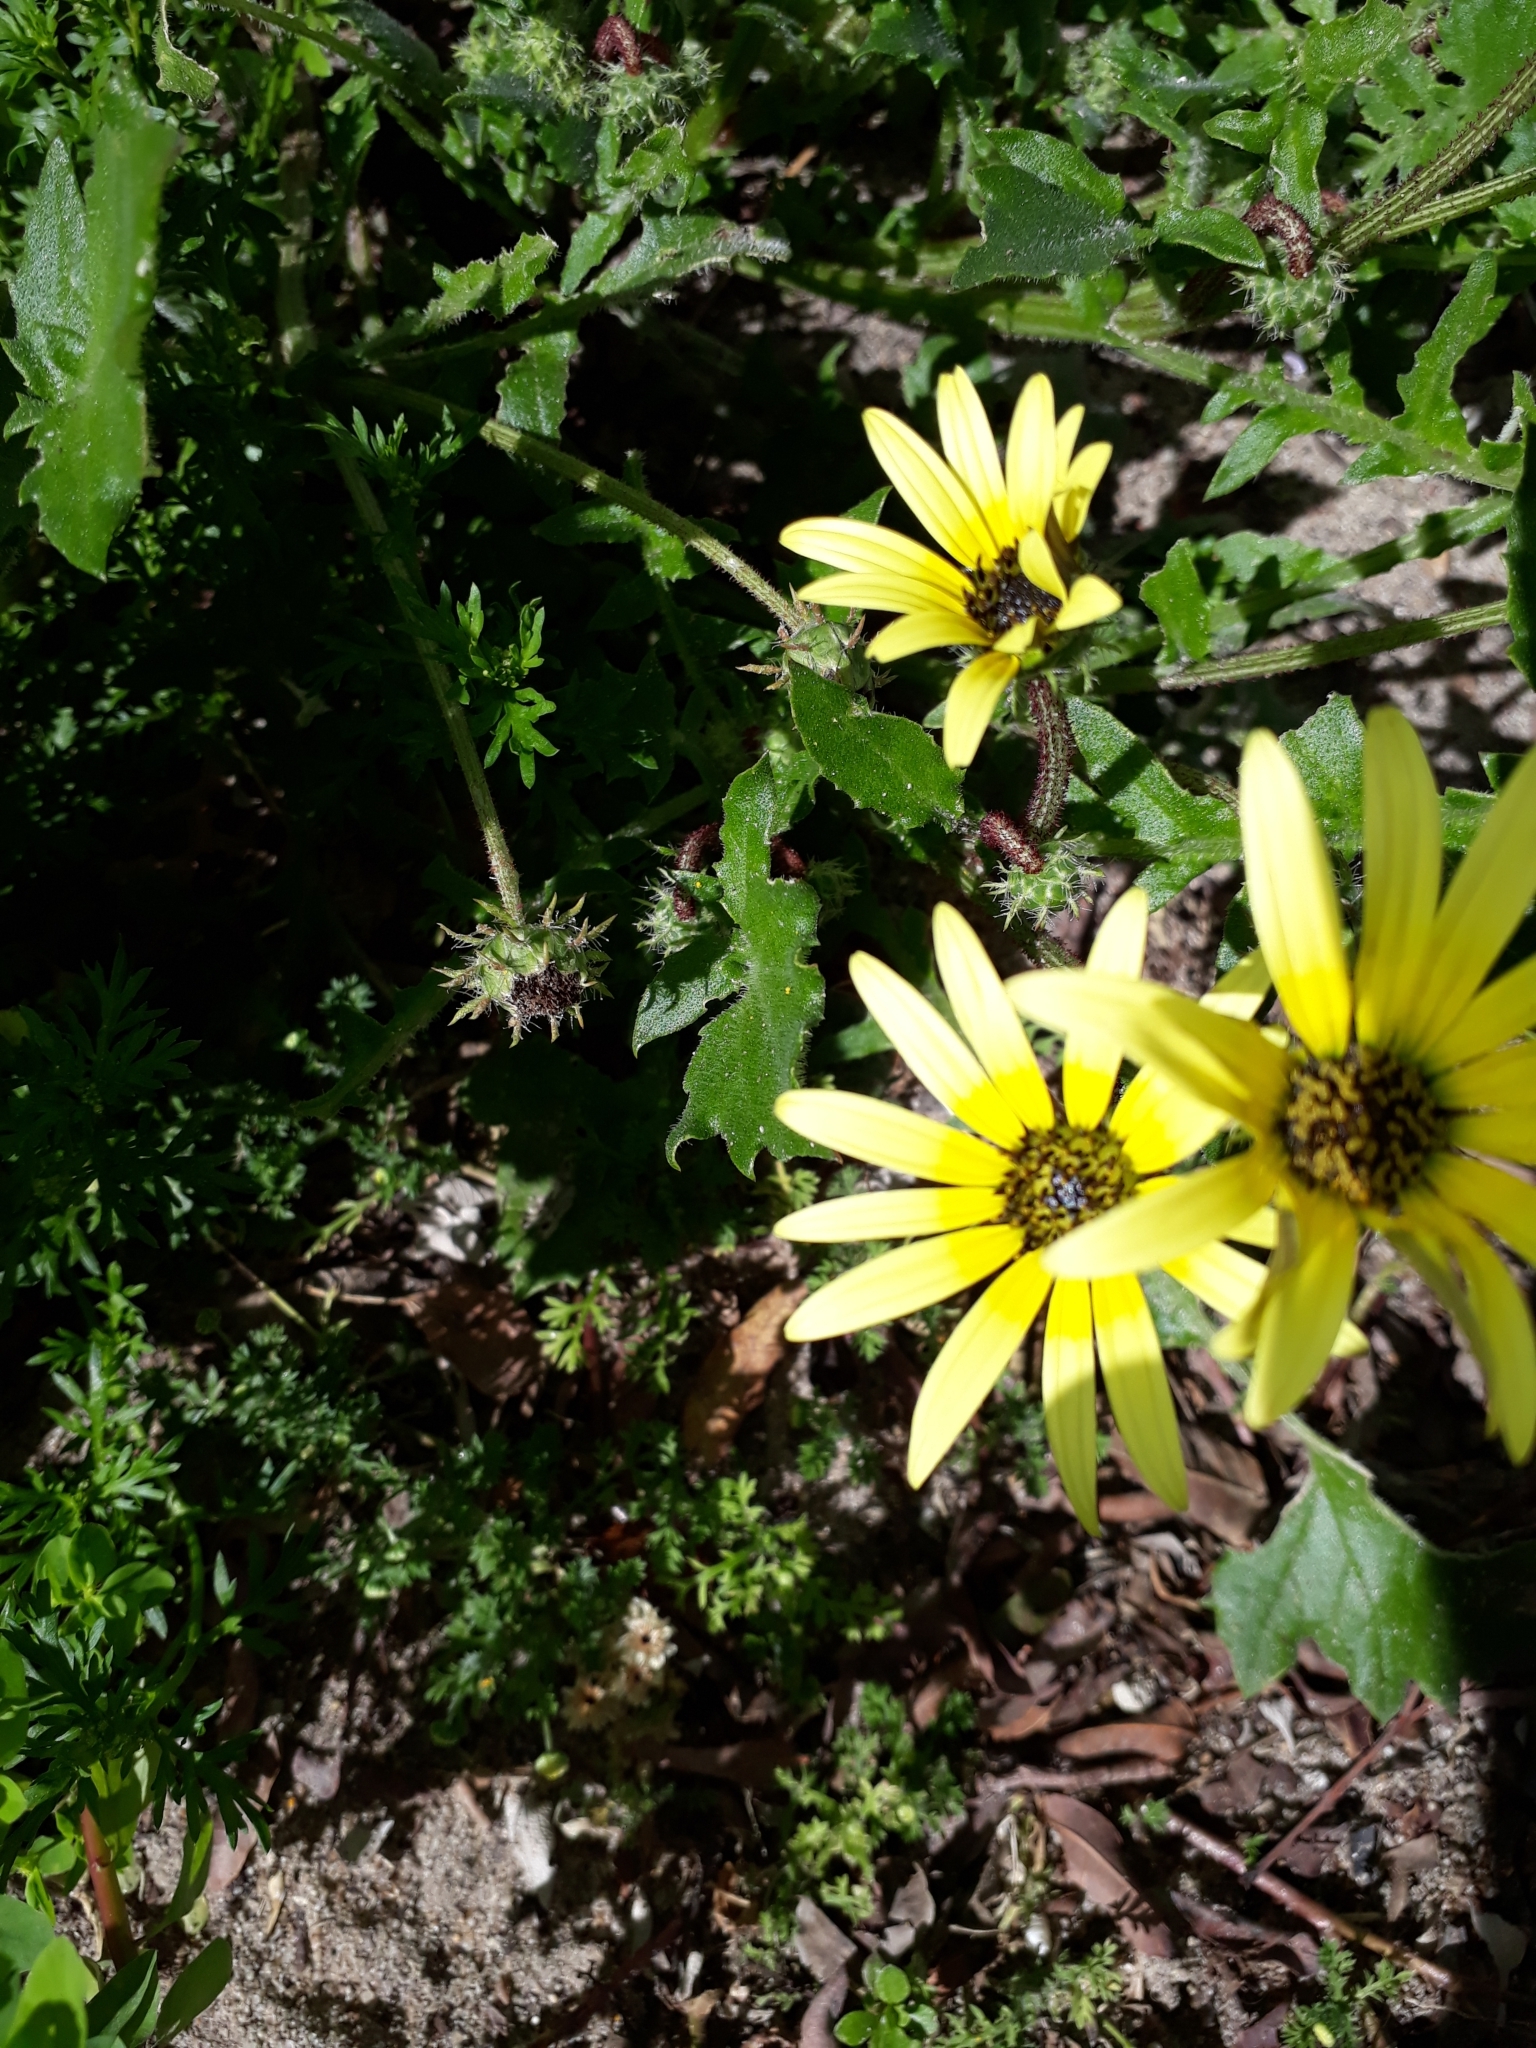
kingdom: Plantae
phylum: Tracheophyta
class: Magnoliopsida
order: Asterales
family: Asteraceae
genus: Arctotheca
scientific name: Arctotheca calendula
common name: Capeweed
